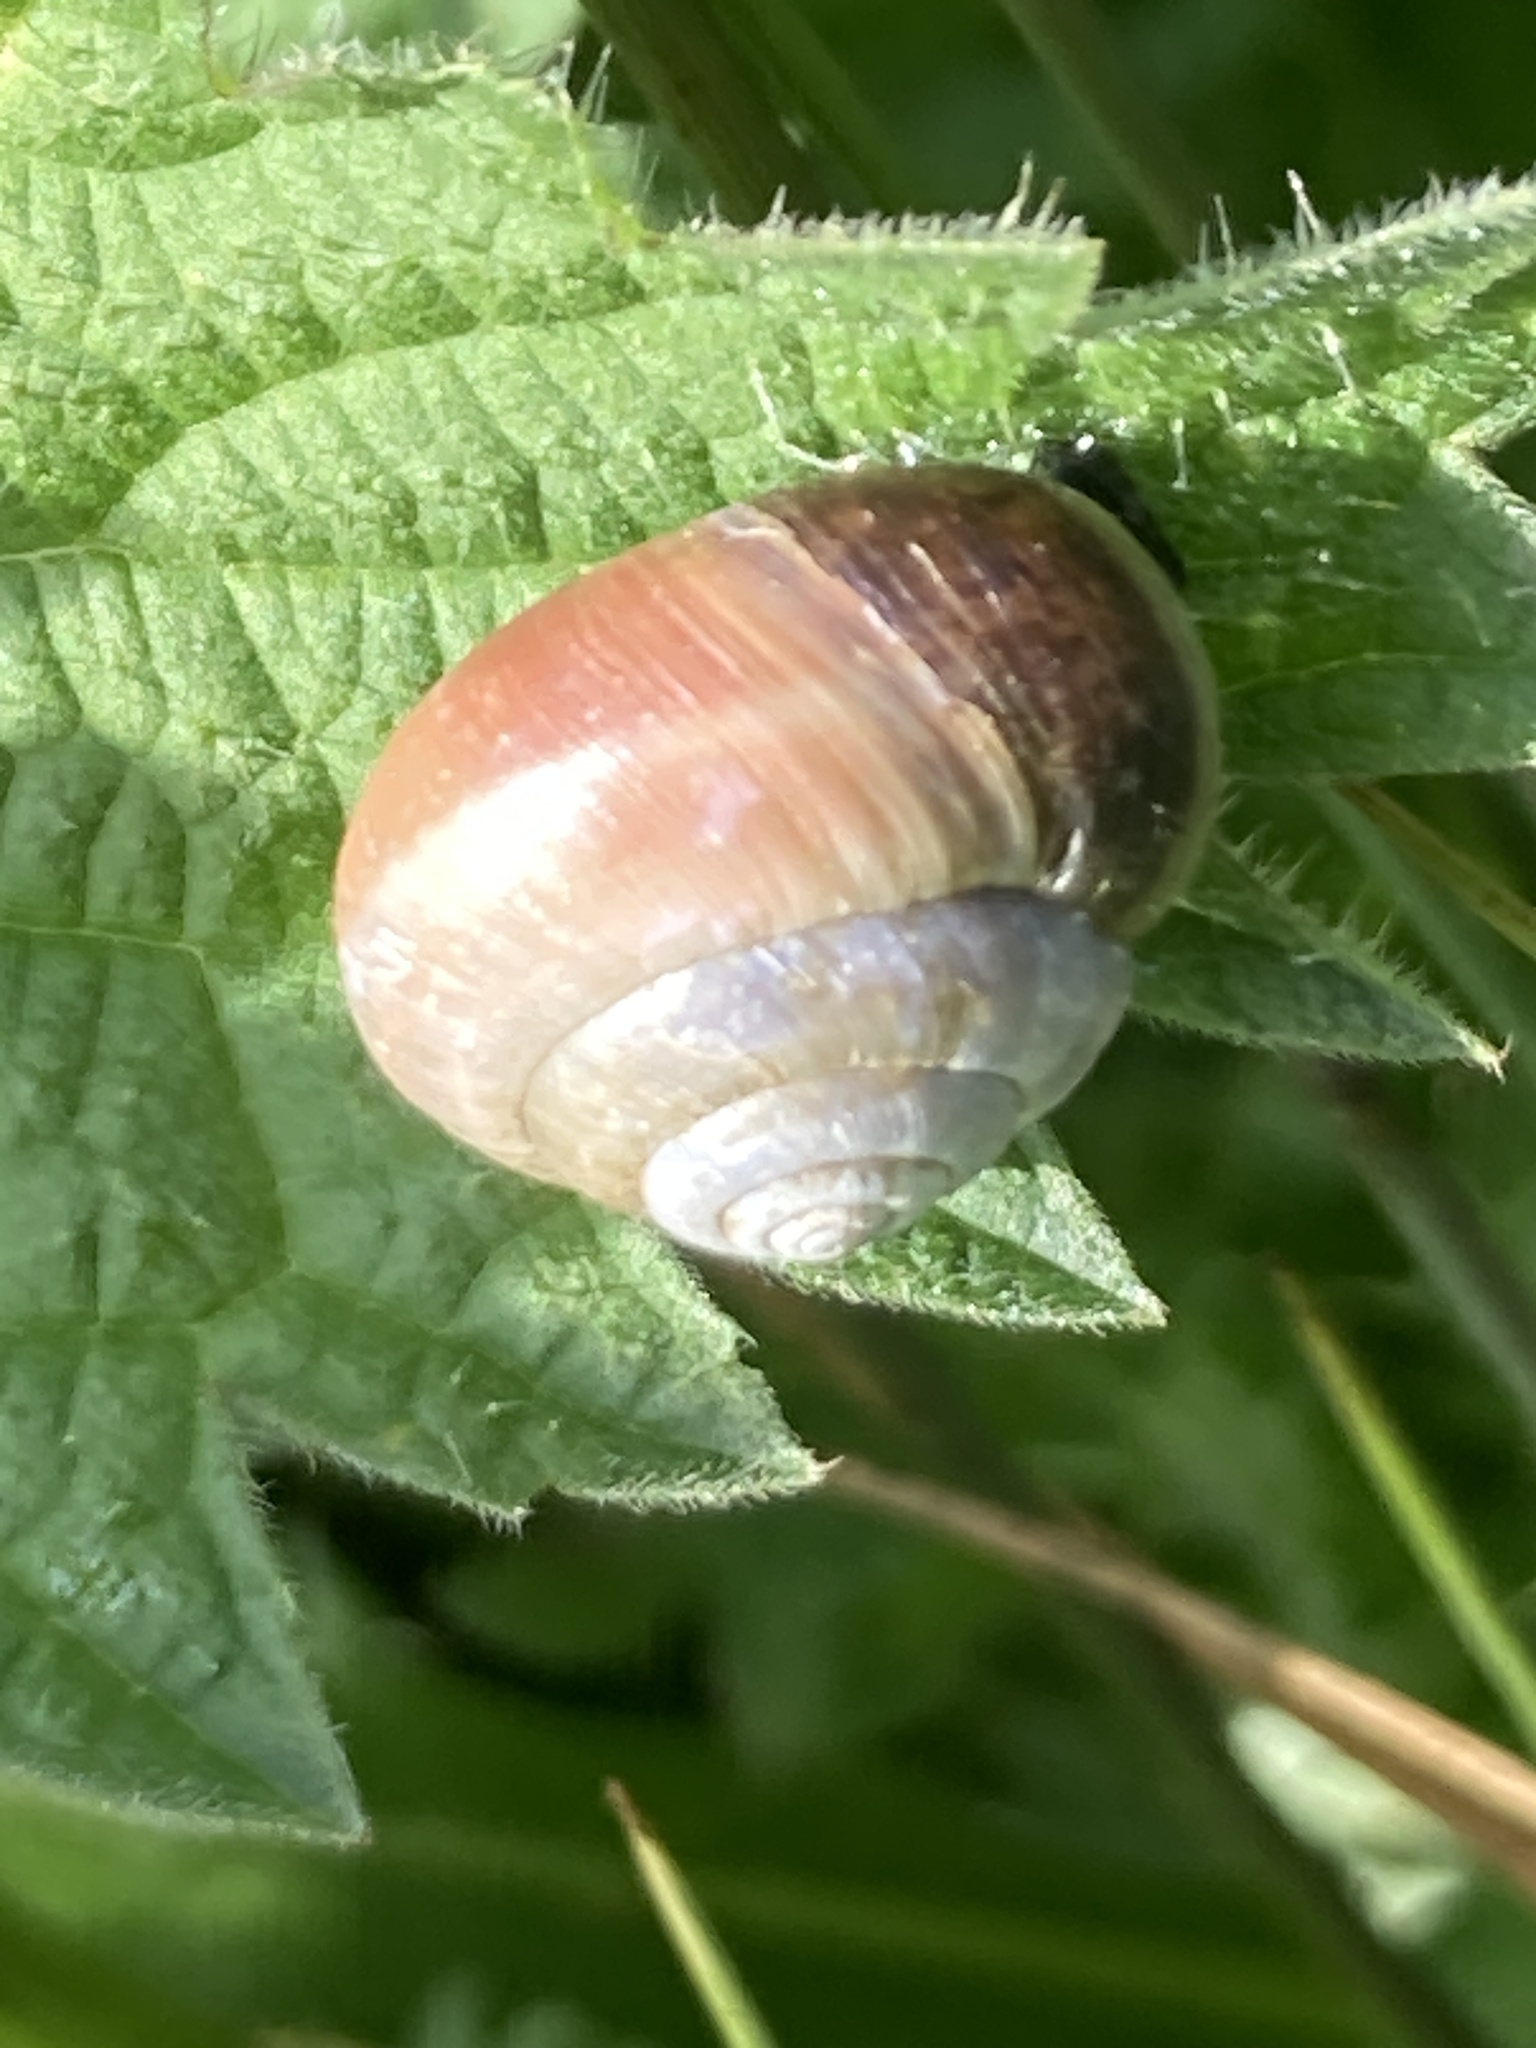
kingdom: Animalia
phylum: Mollusca
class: Gastropoda
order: Stylommatophora
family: Hygromiidae
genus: Monacha
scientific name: Monacha cantiana
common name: Kentish snail
